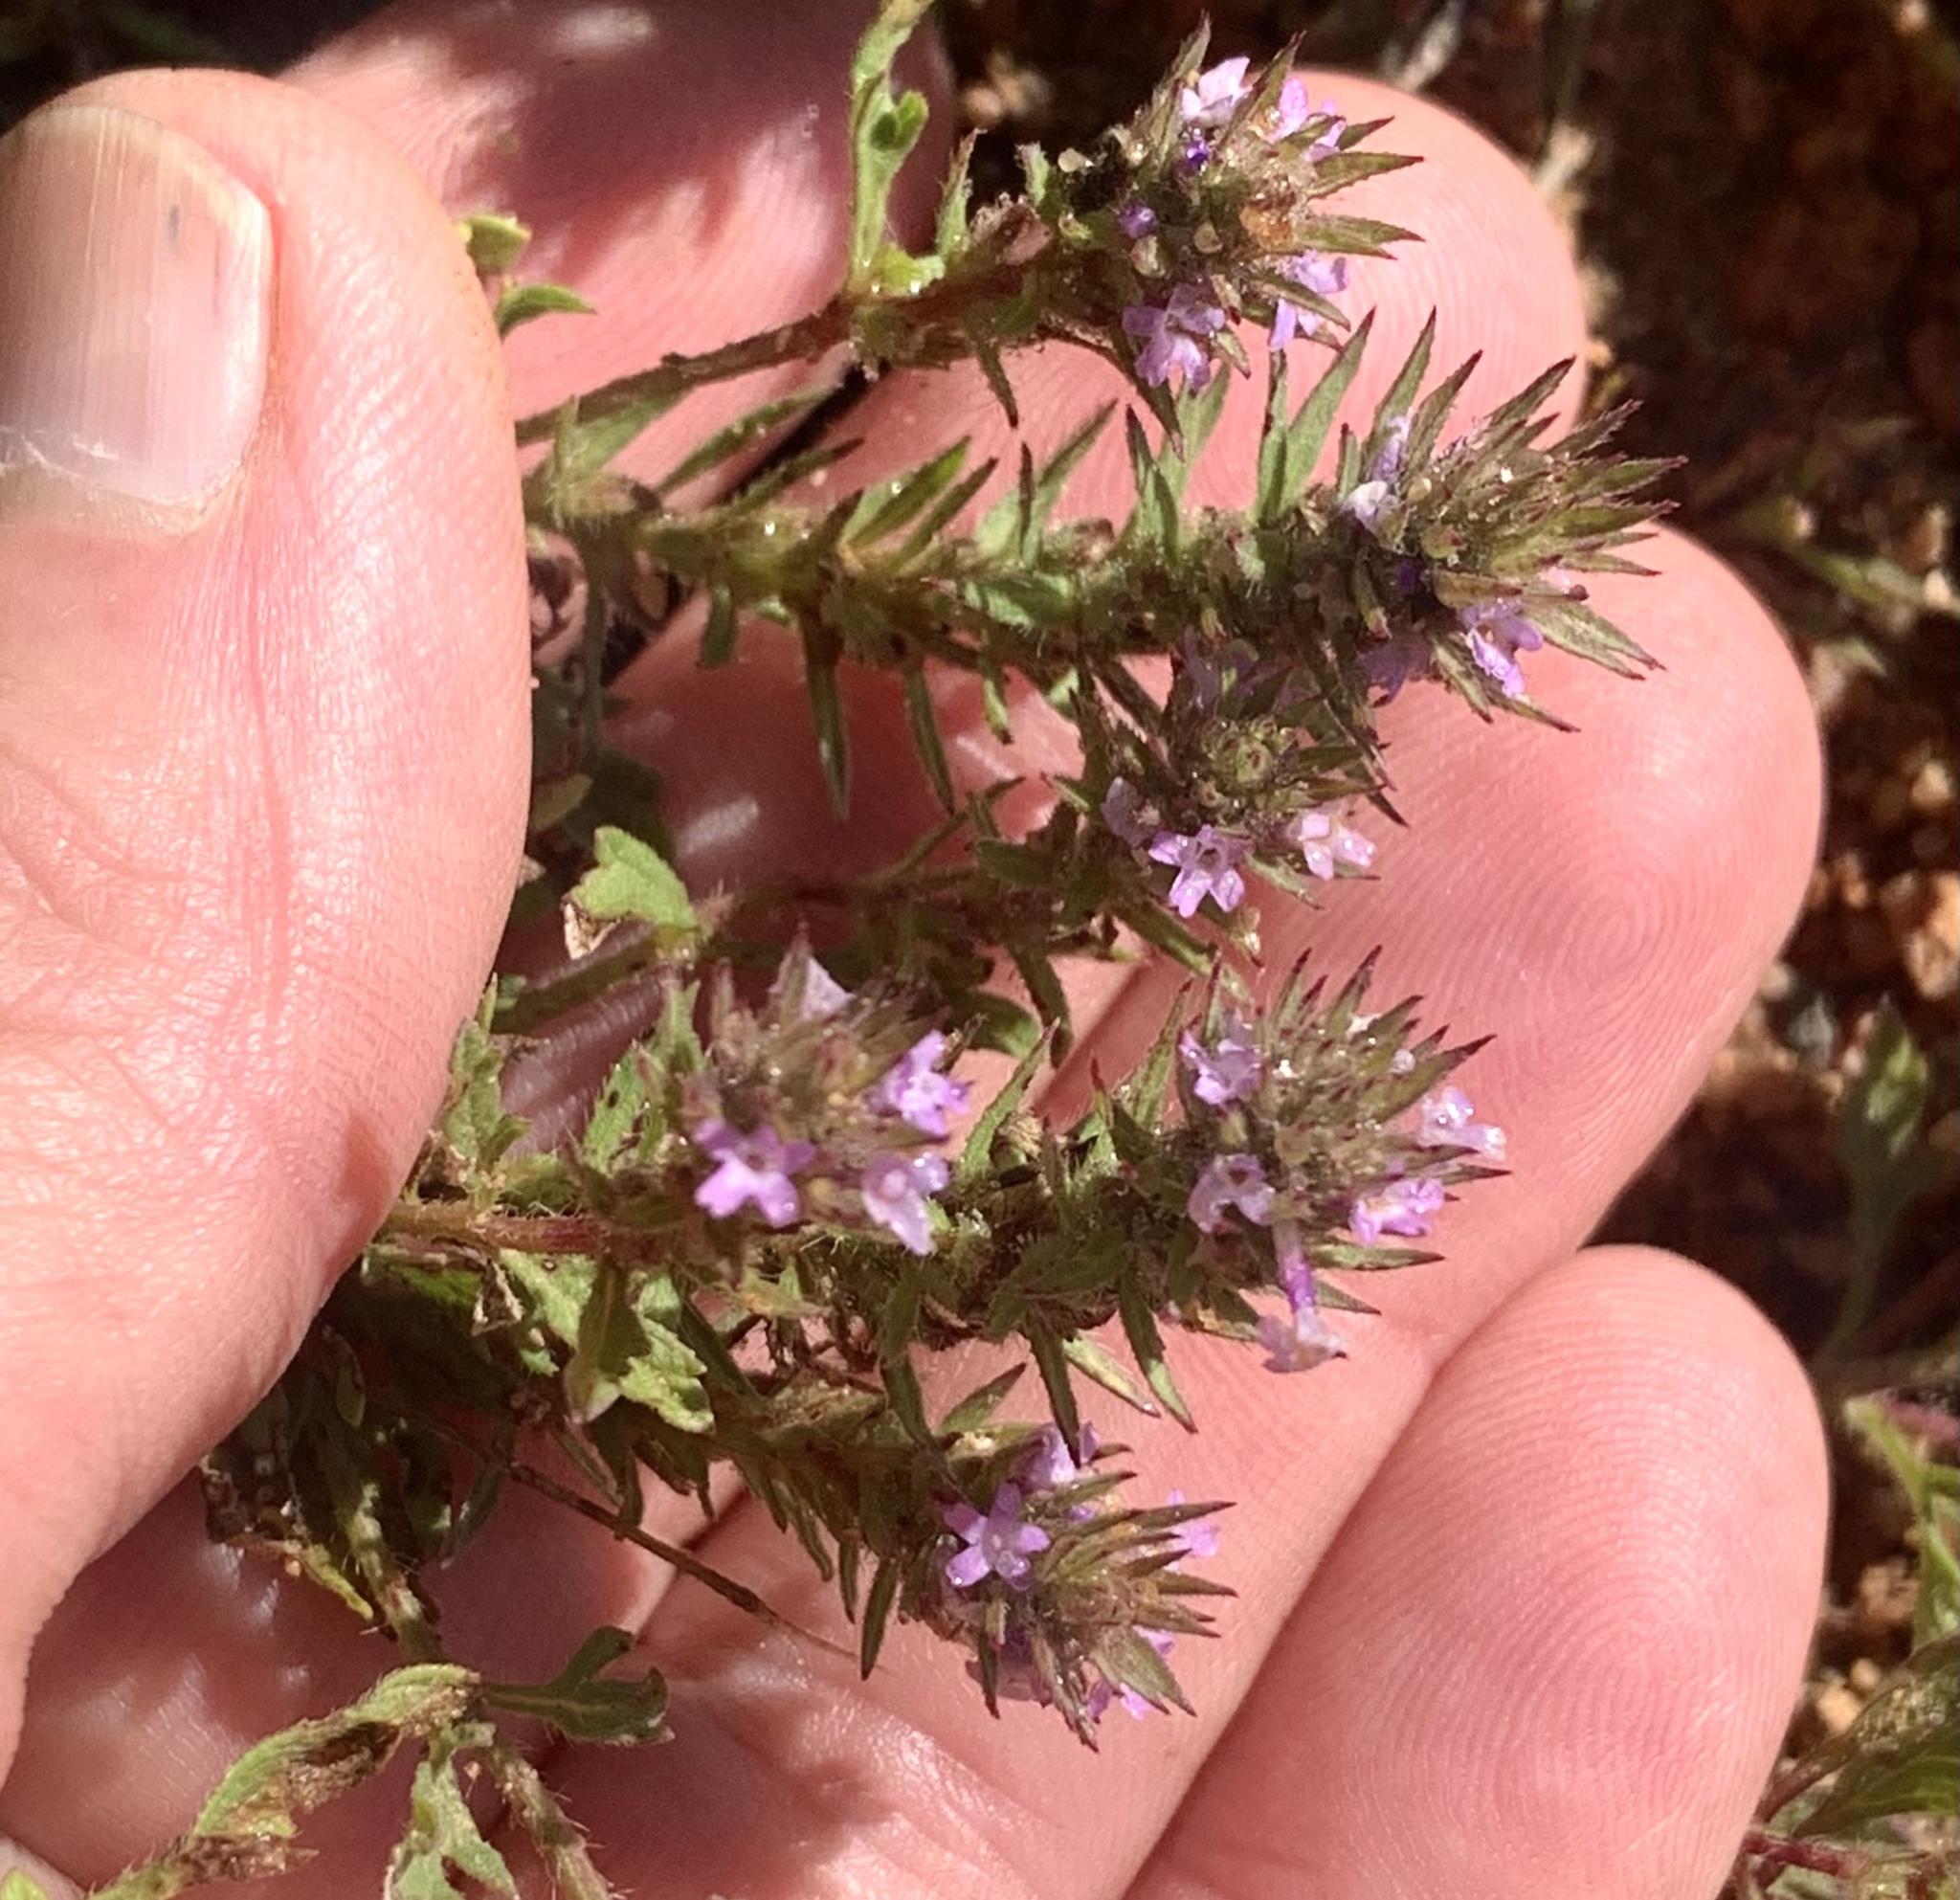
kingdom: Plantae
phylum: Tracheophyta
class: Magnoliopsida
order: Lamiales
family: Verbenaceae
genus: Verbena
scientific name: Verbena bracteata
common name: Bracted vervain
